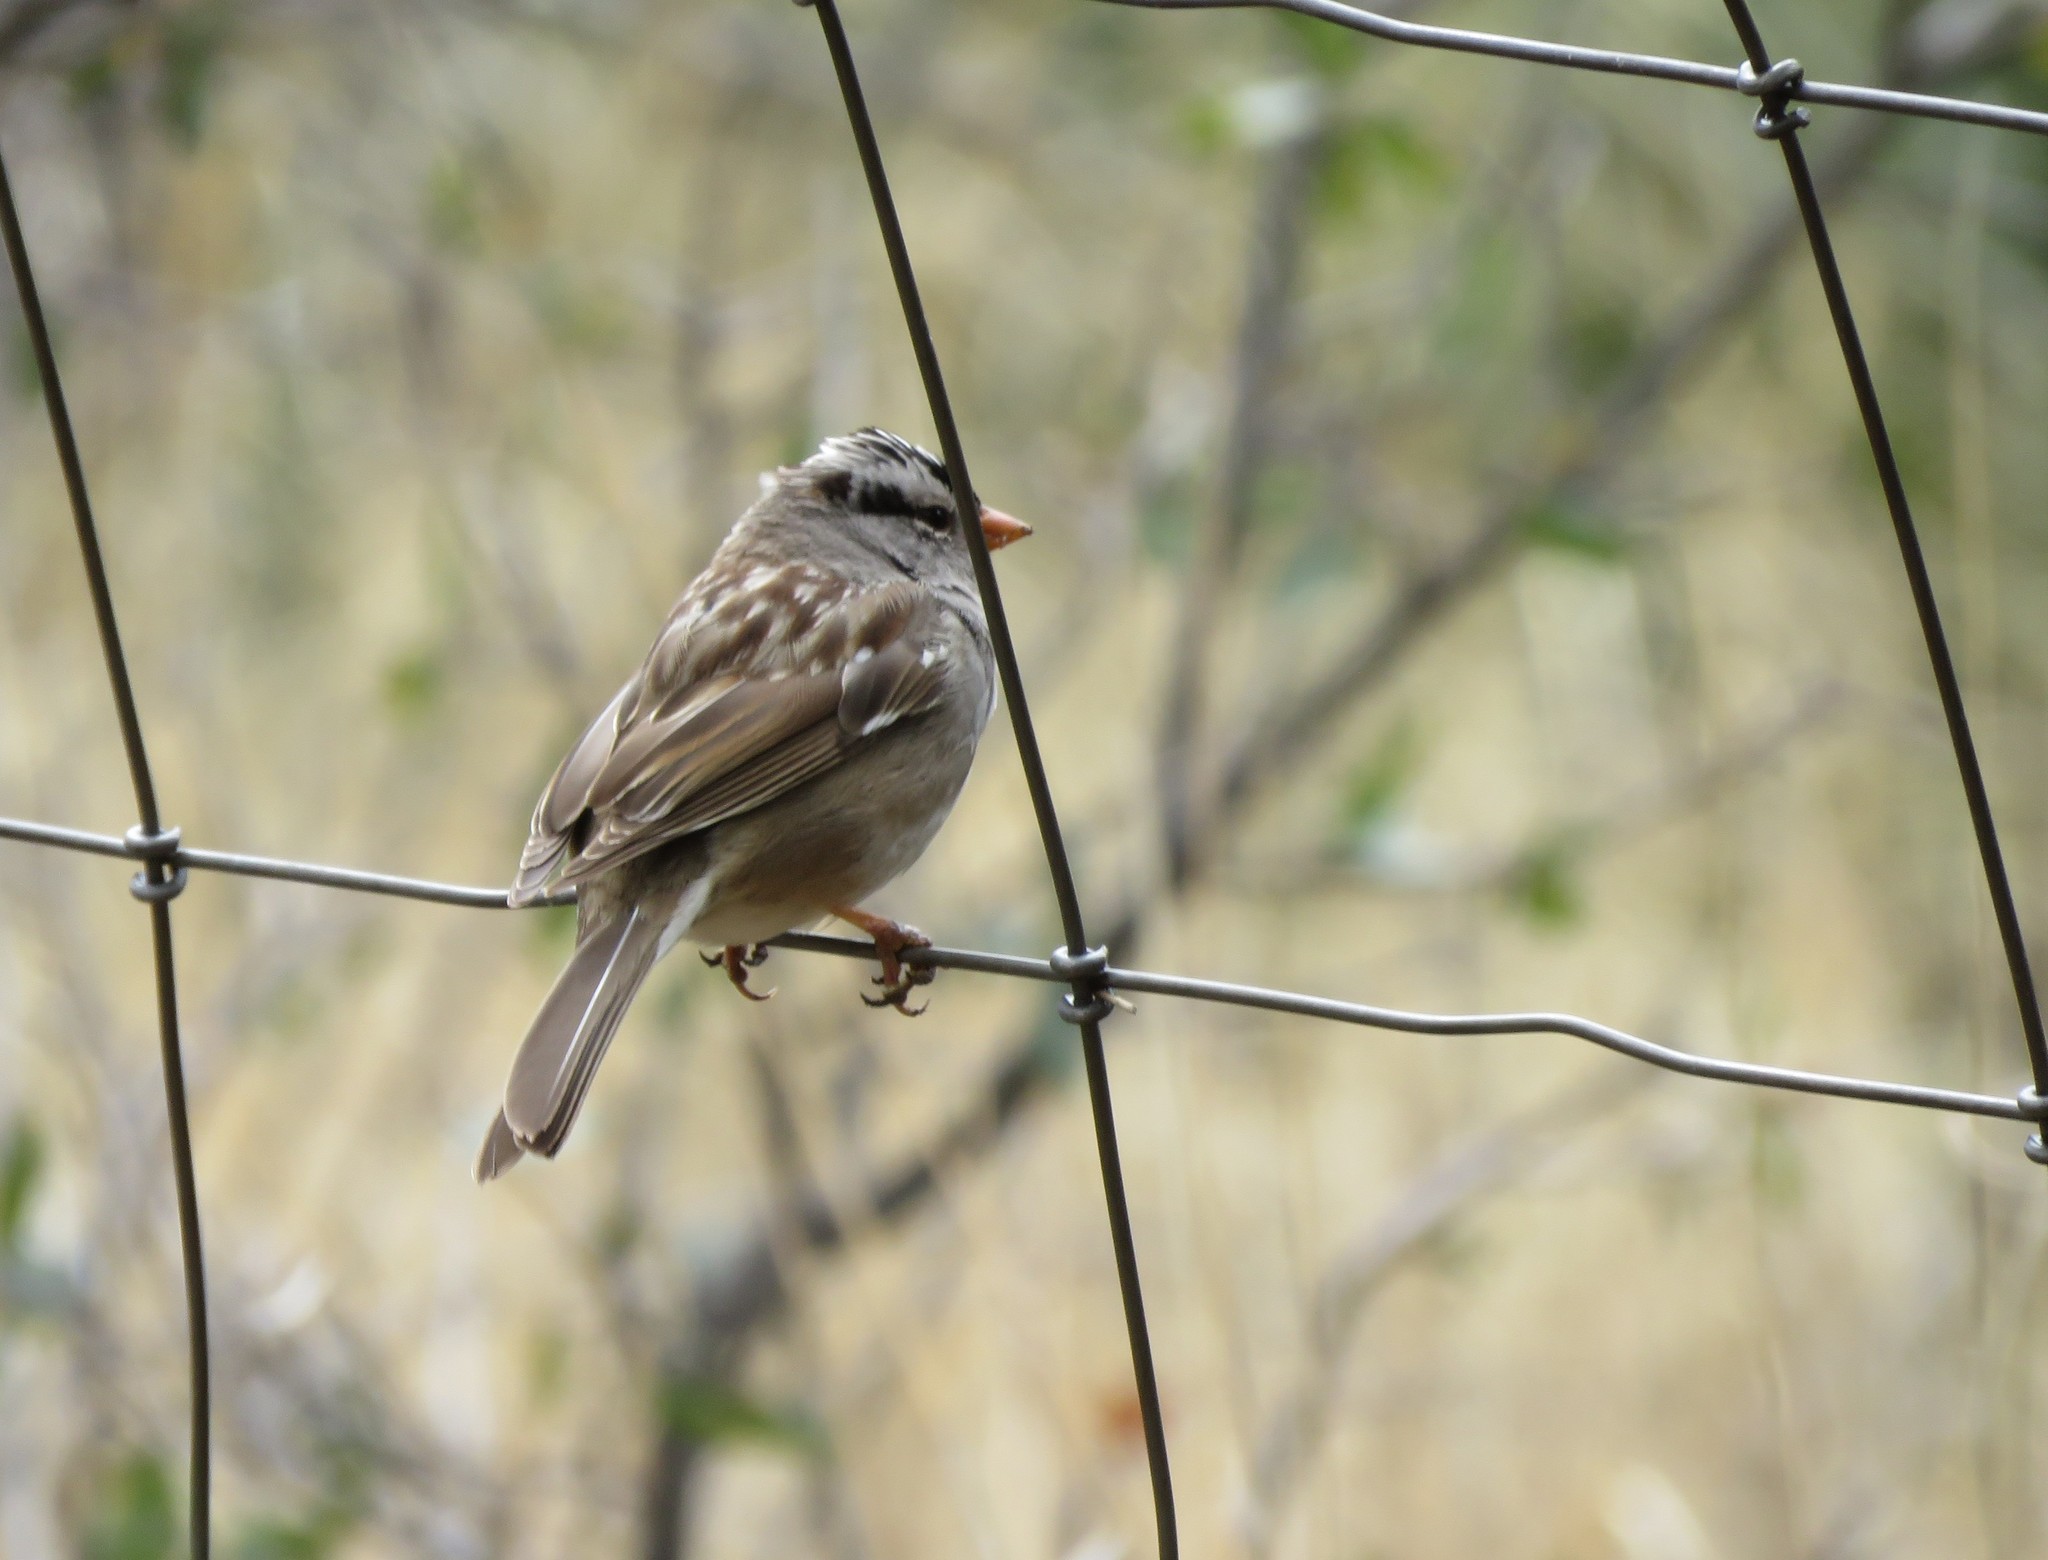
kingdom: Animalia
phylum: Chordata
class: Aves
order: Passeriformes
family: Passerellidae
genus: Zonotrichia
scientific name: Zonotrichia leucophrys
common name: White-crowned sparrow
